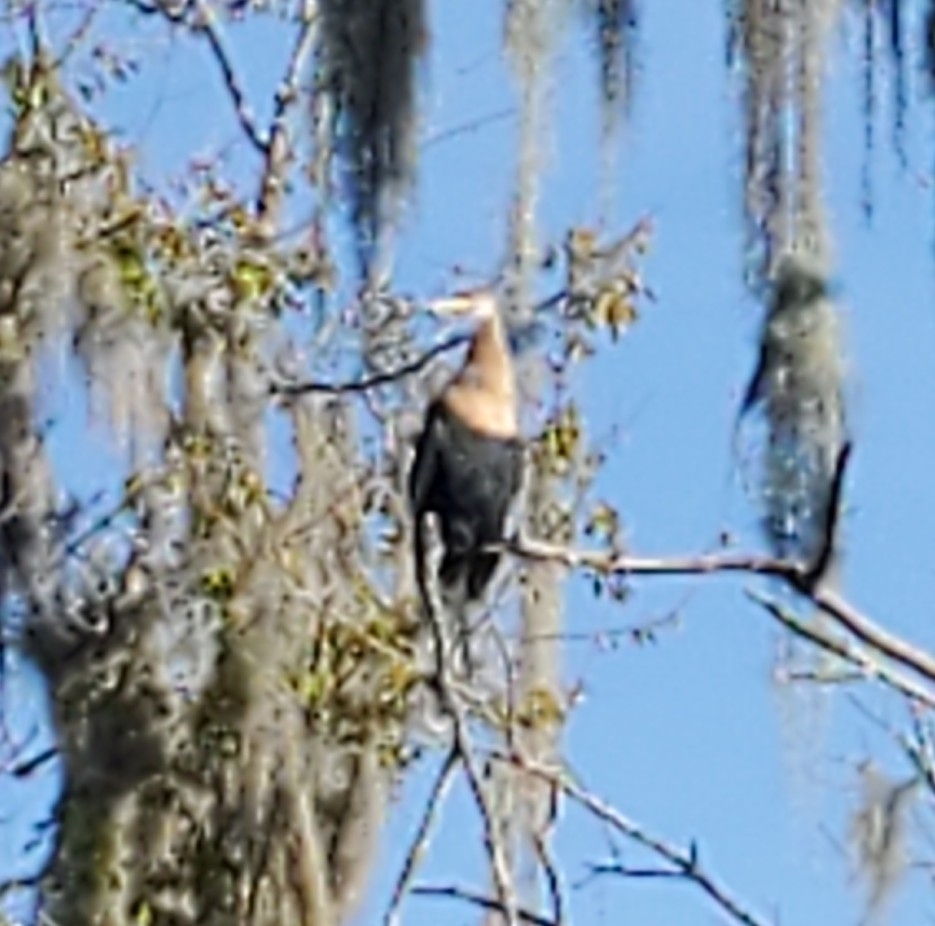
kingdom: Animalia
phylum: Chordata
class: Aves
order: Suliformes
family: Anhingidae
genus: Anhinga
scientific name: Anhinga anhinga
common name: Anhinga
